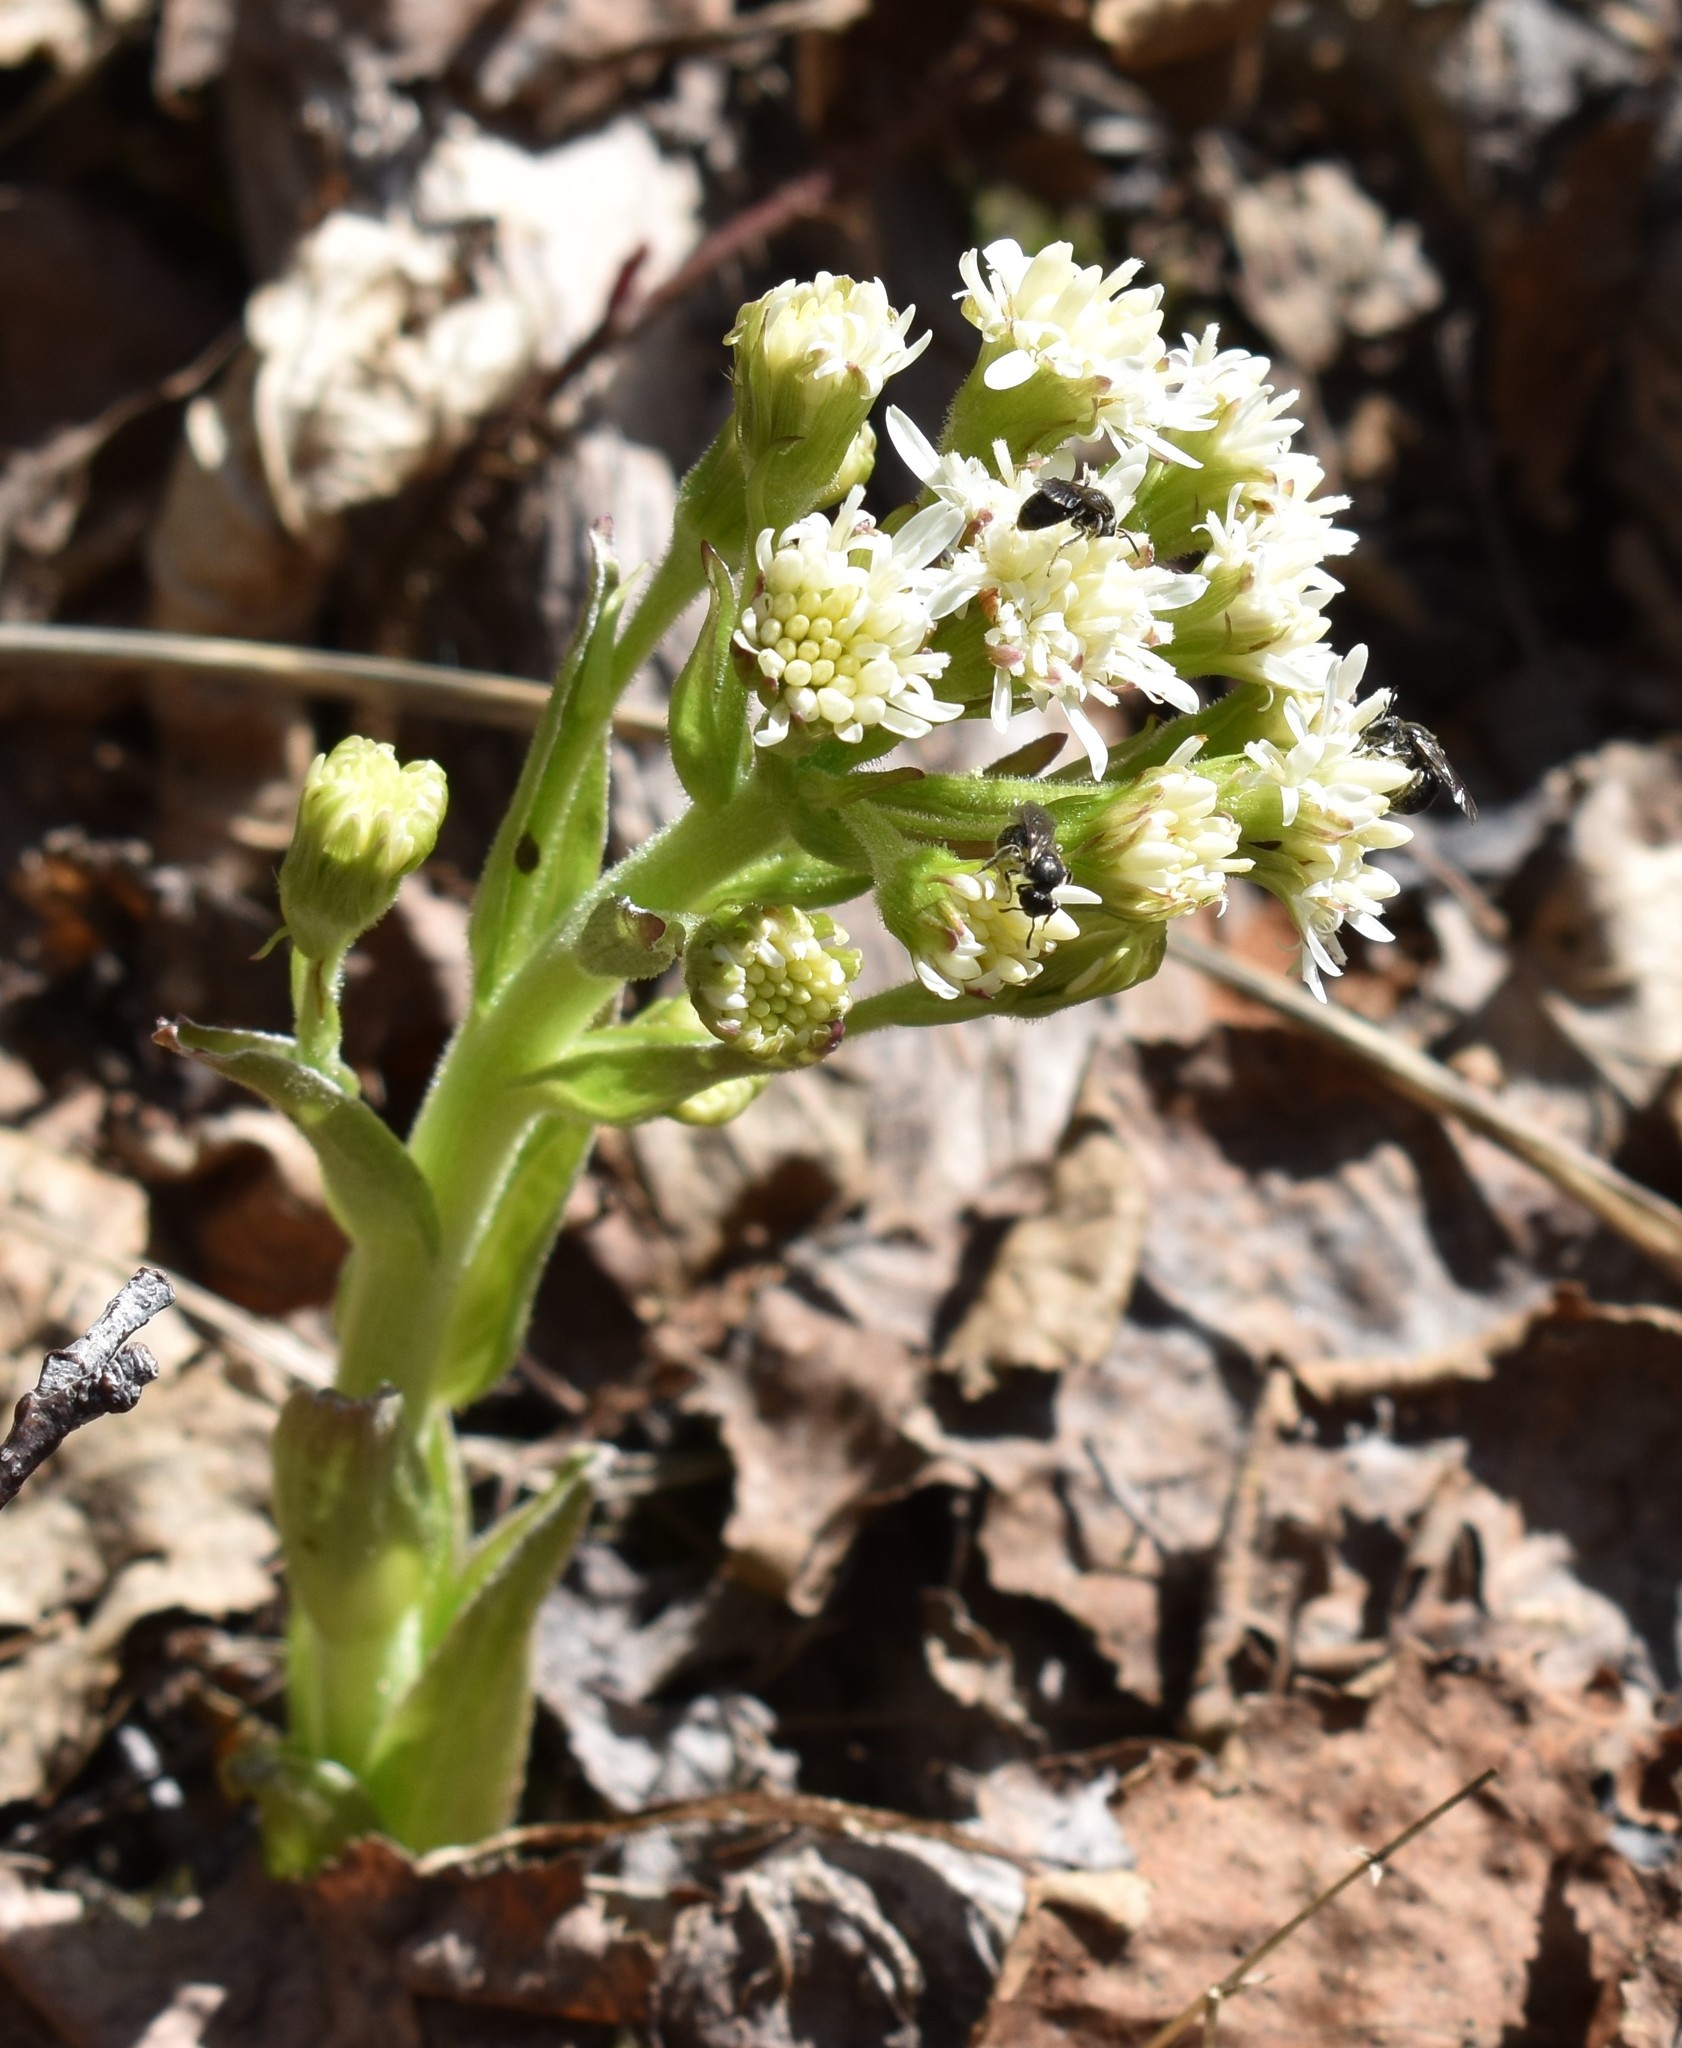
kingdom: Plantae
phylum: Tracheophyta
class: Magnoliopsida
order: Asterales
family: Asteraceae
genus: Petasites
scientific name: Petasites frigidus
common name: Arctic butterbur
